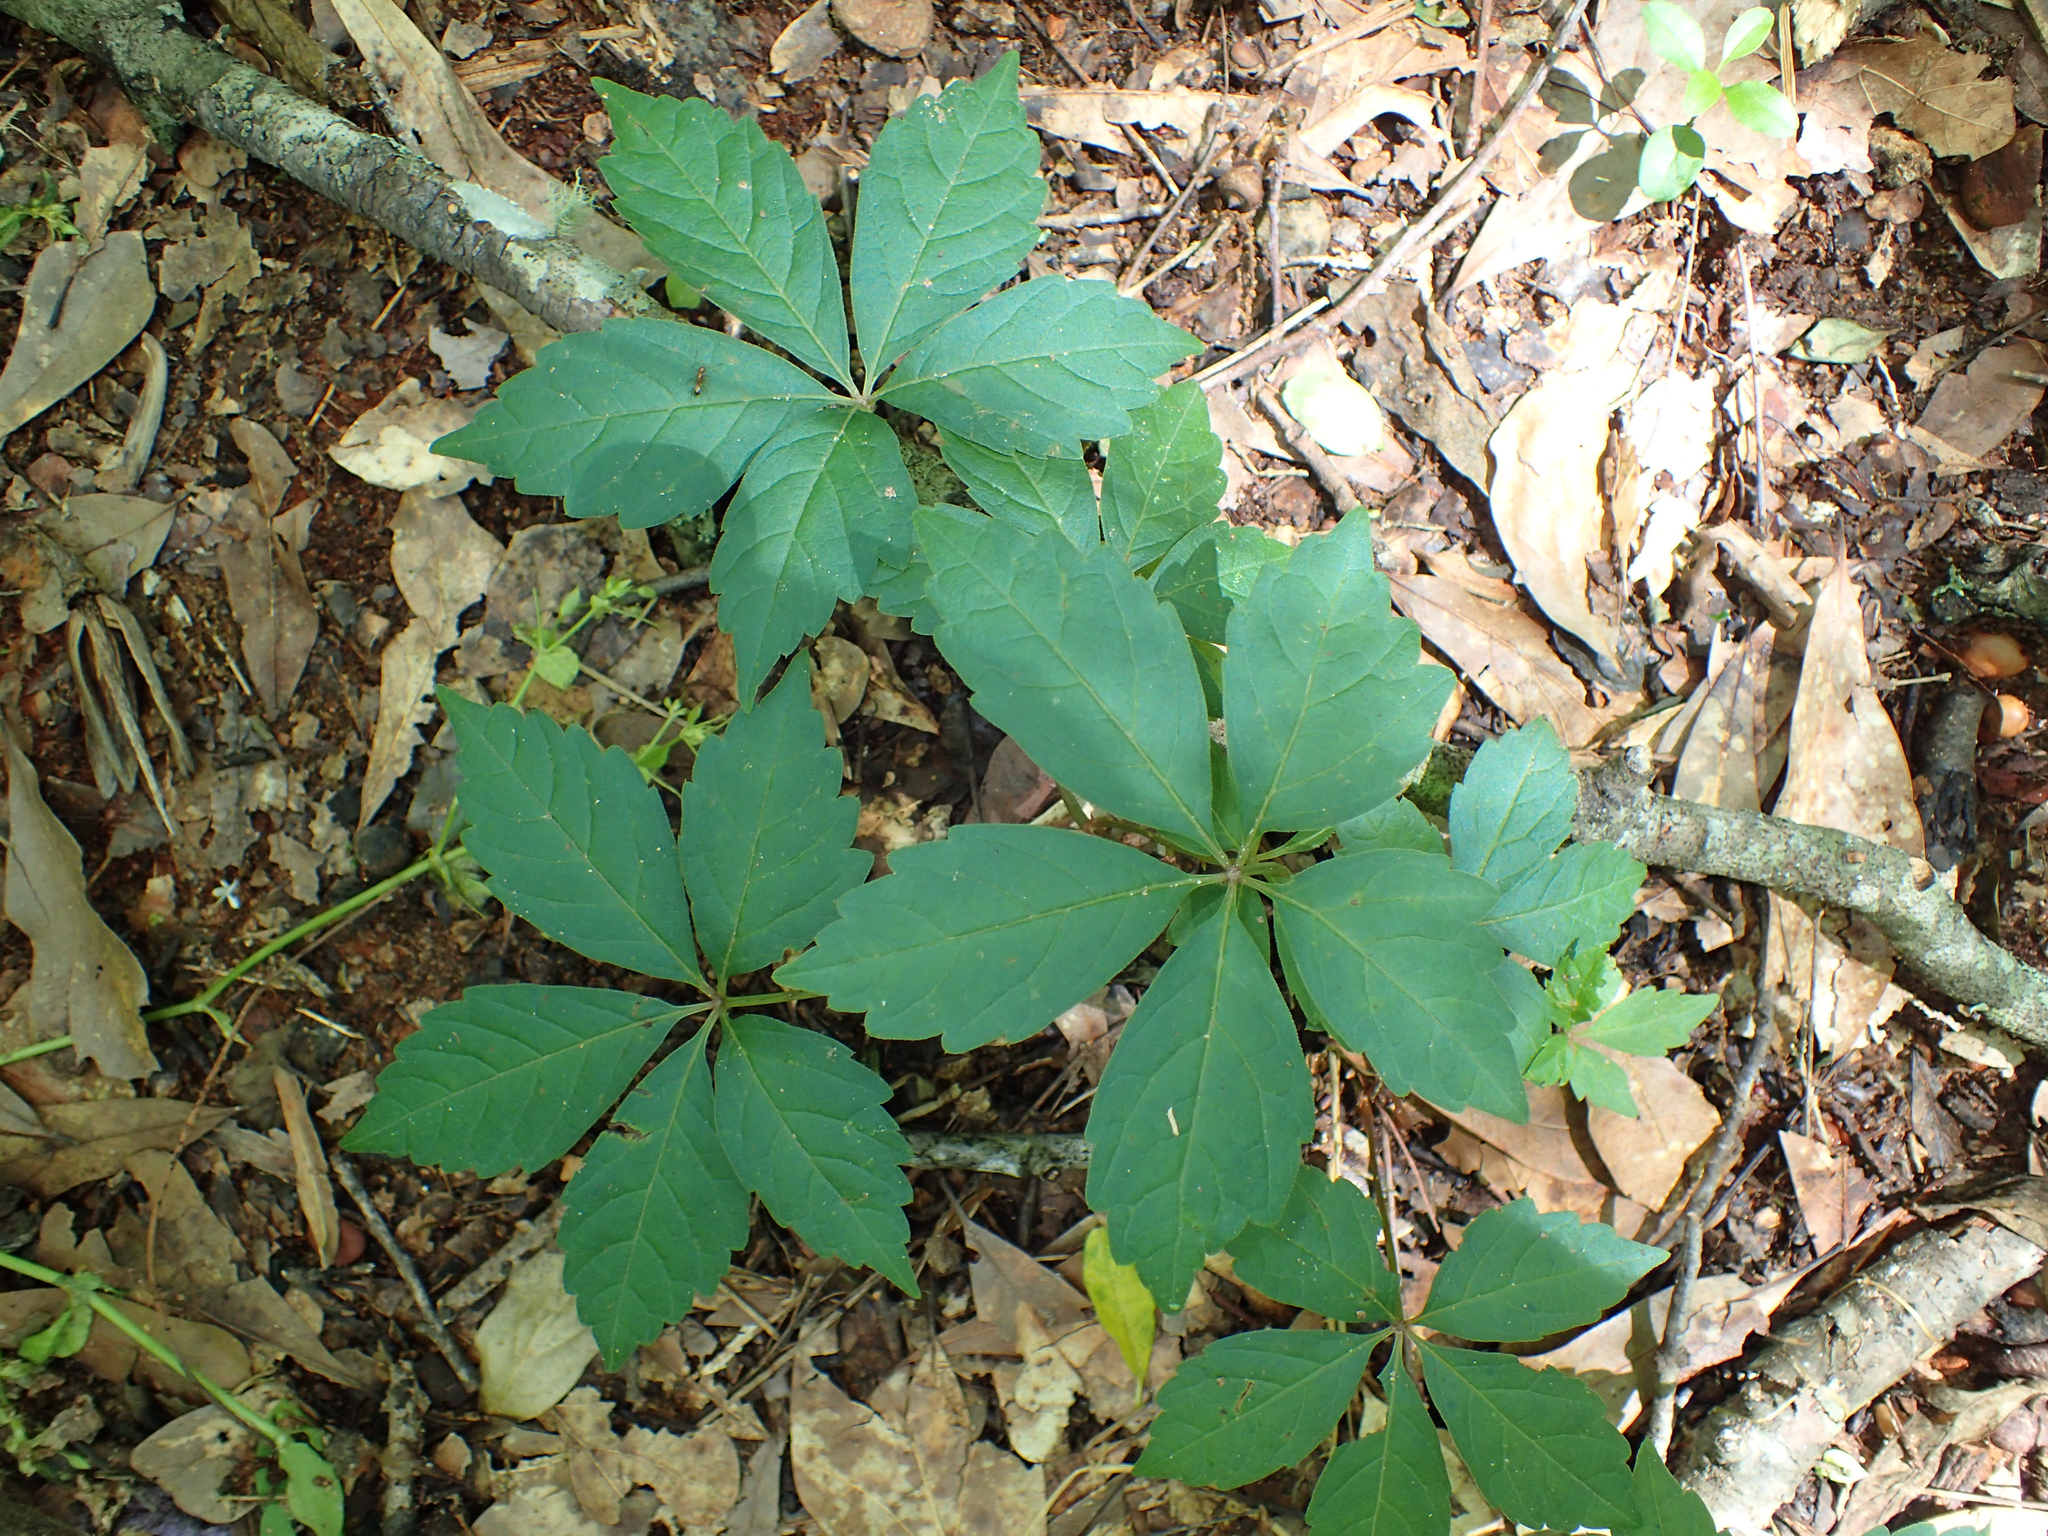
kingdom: Plantae
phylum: Tracheophyta
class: Magnoliopsida
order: Vitales
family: Vitaceae
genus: Parthenocissus
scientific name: Parthenocissus quinquefolia
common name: Virginia-creeper
